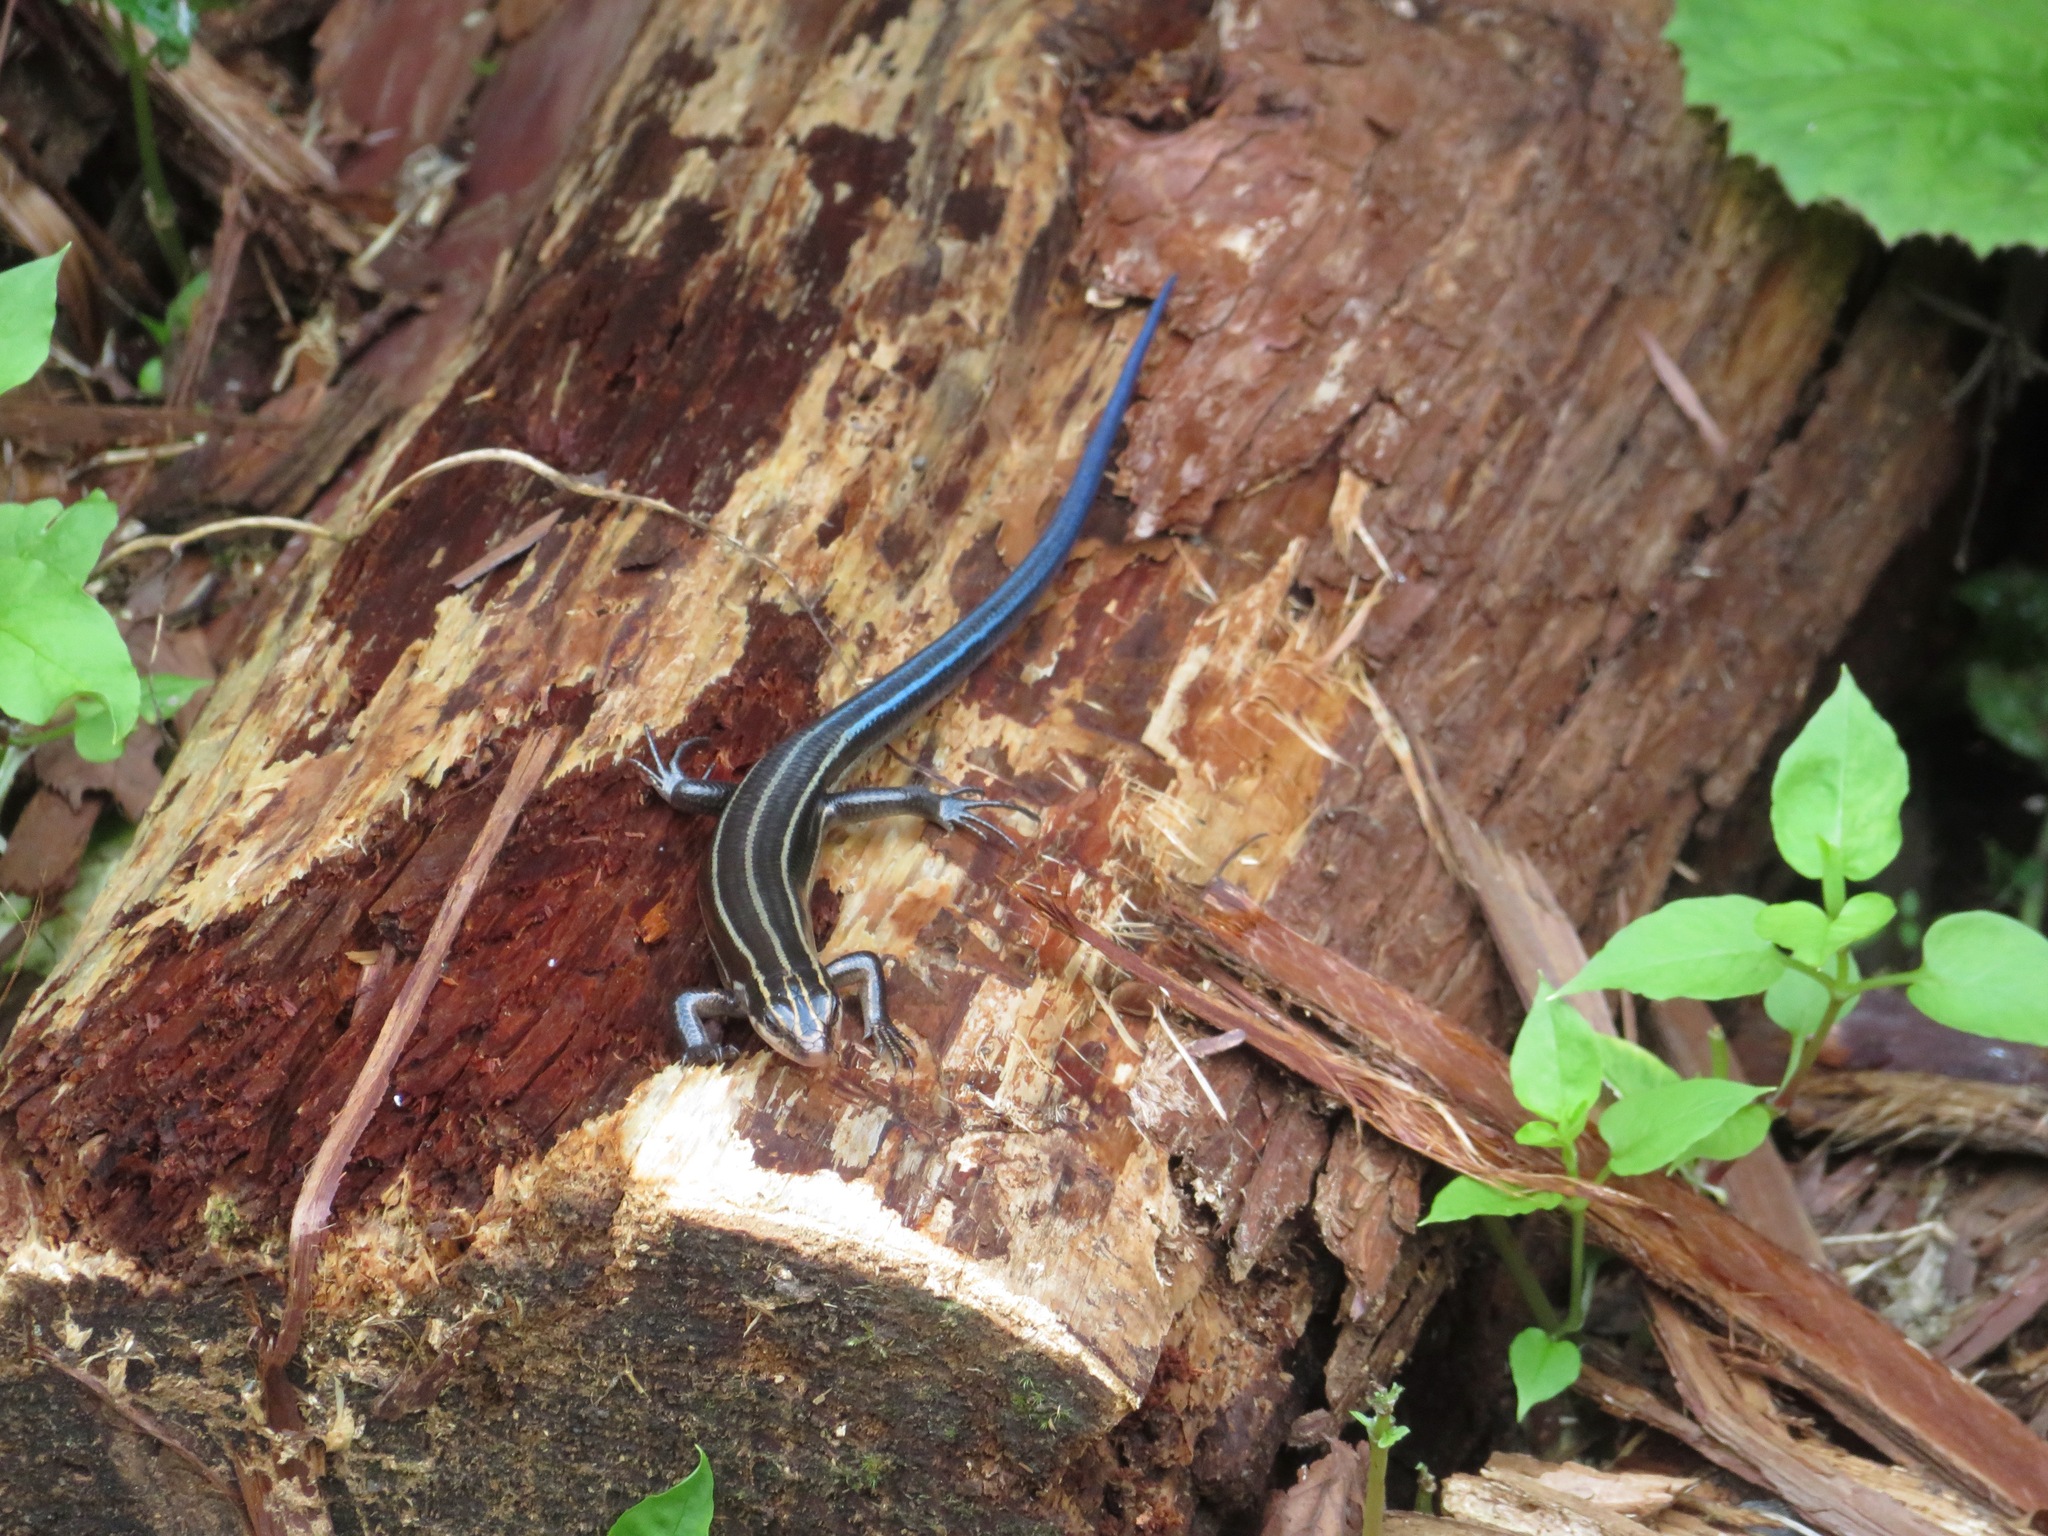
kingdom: Animalia
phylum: Chordata
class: Squamata
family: Scincidae
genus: Plestiodon
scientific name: Plestiodon finitimus
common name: Far eastern skink
